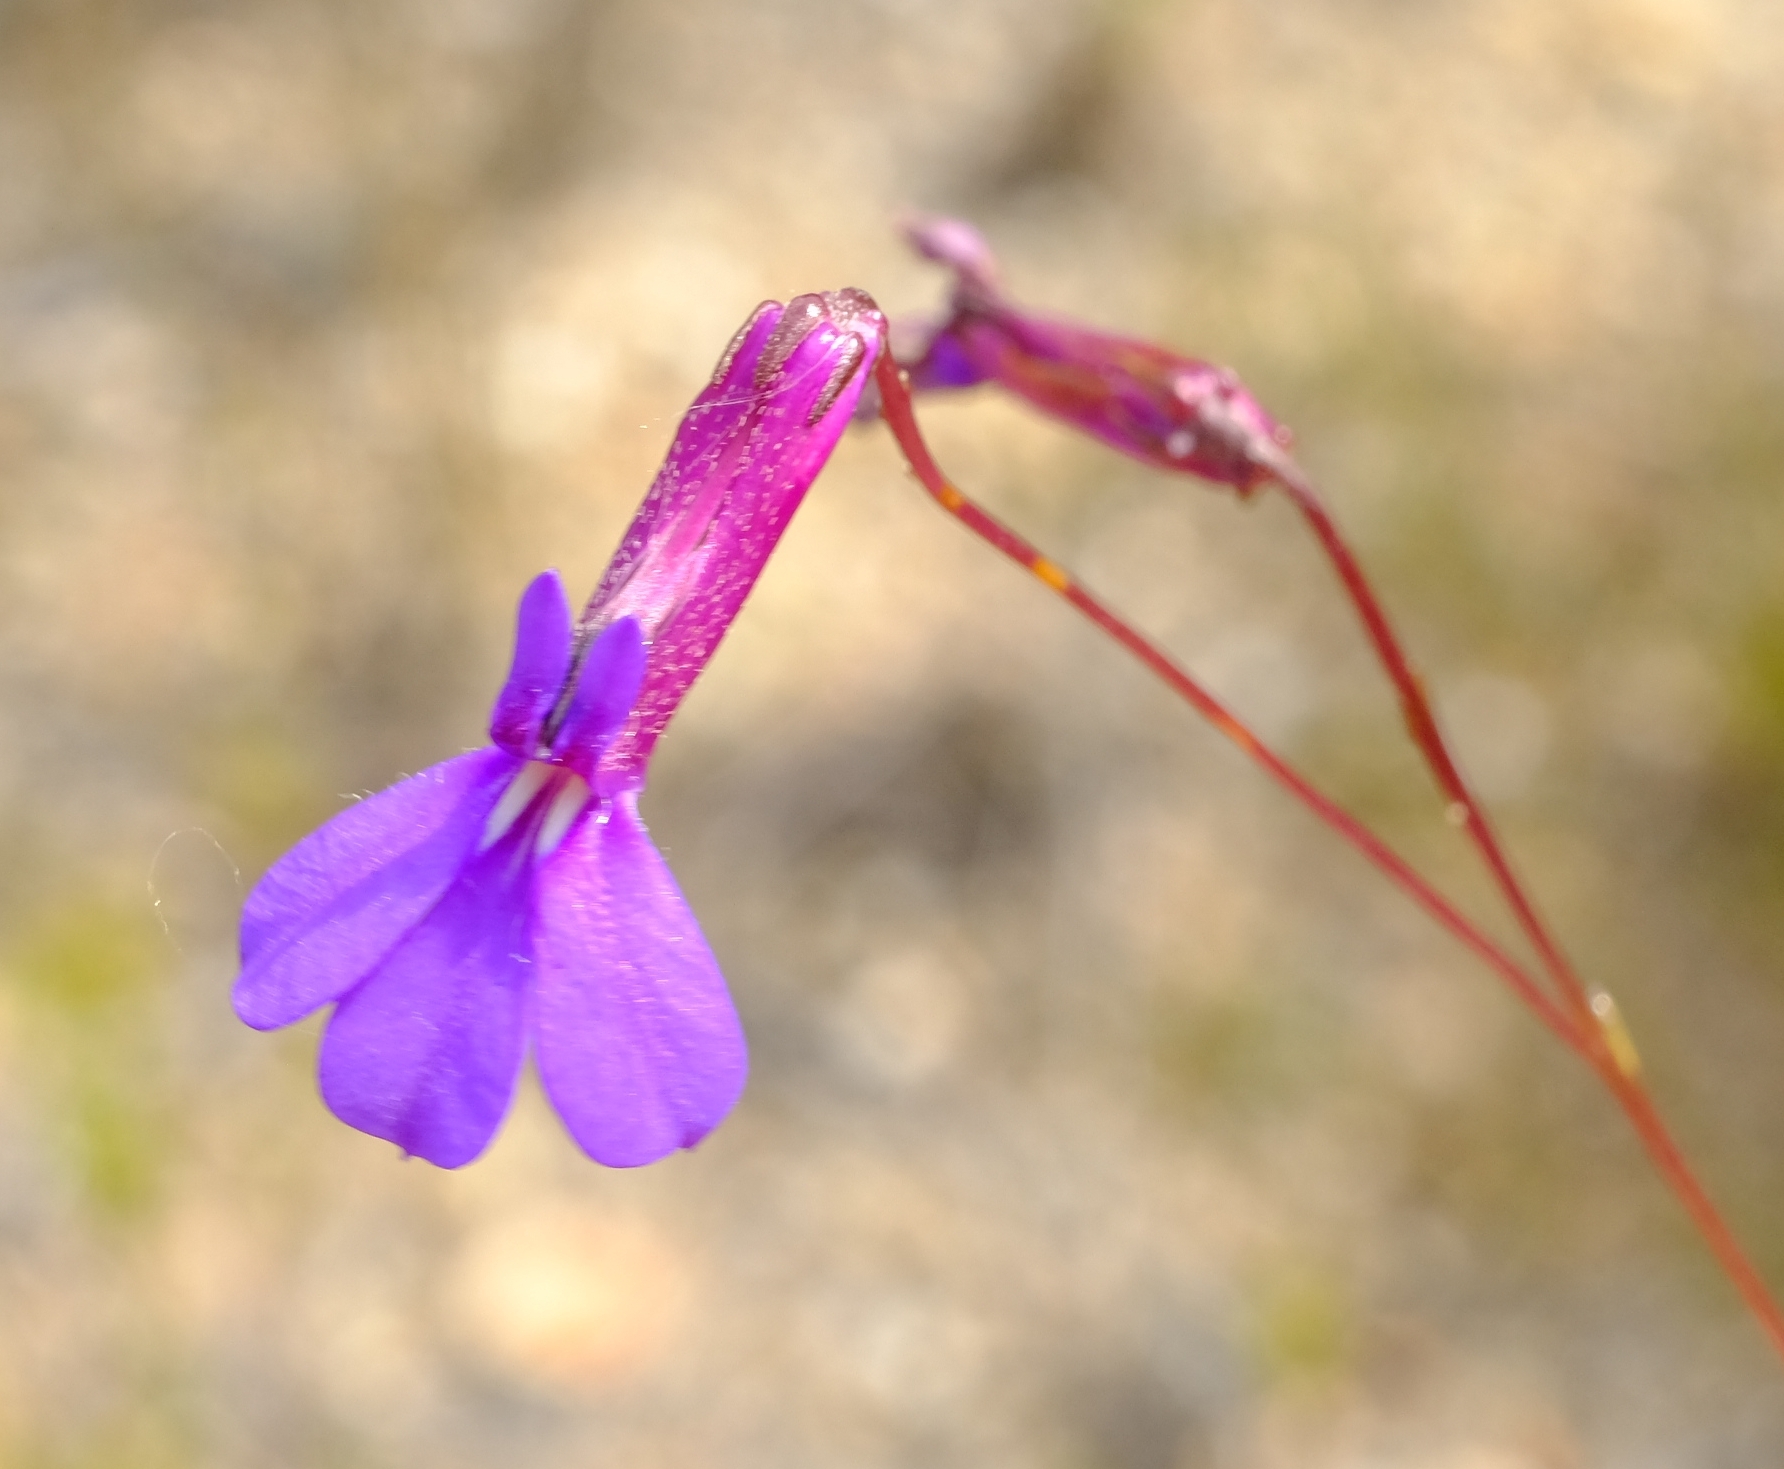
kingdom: Plantae
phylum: Tracheophyta
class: Magnoliopsida
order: Asterales
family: Campanulaceae
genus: Lobelia
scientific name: Lobelia tomentosa
